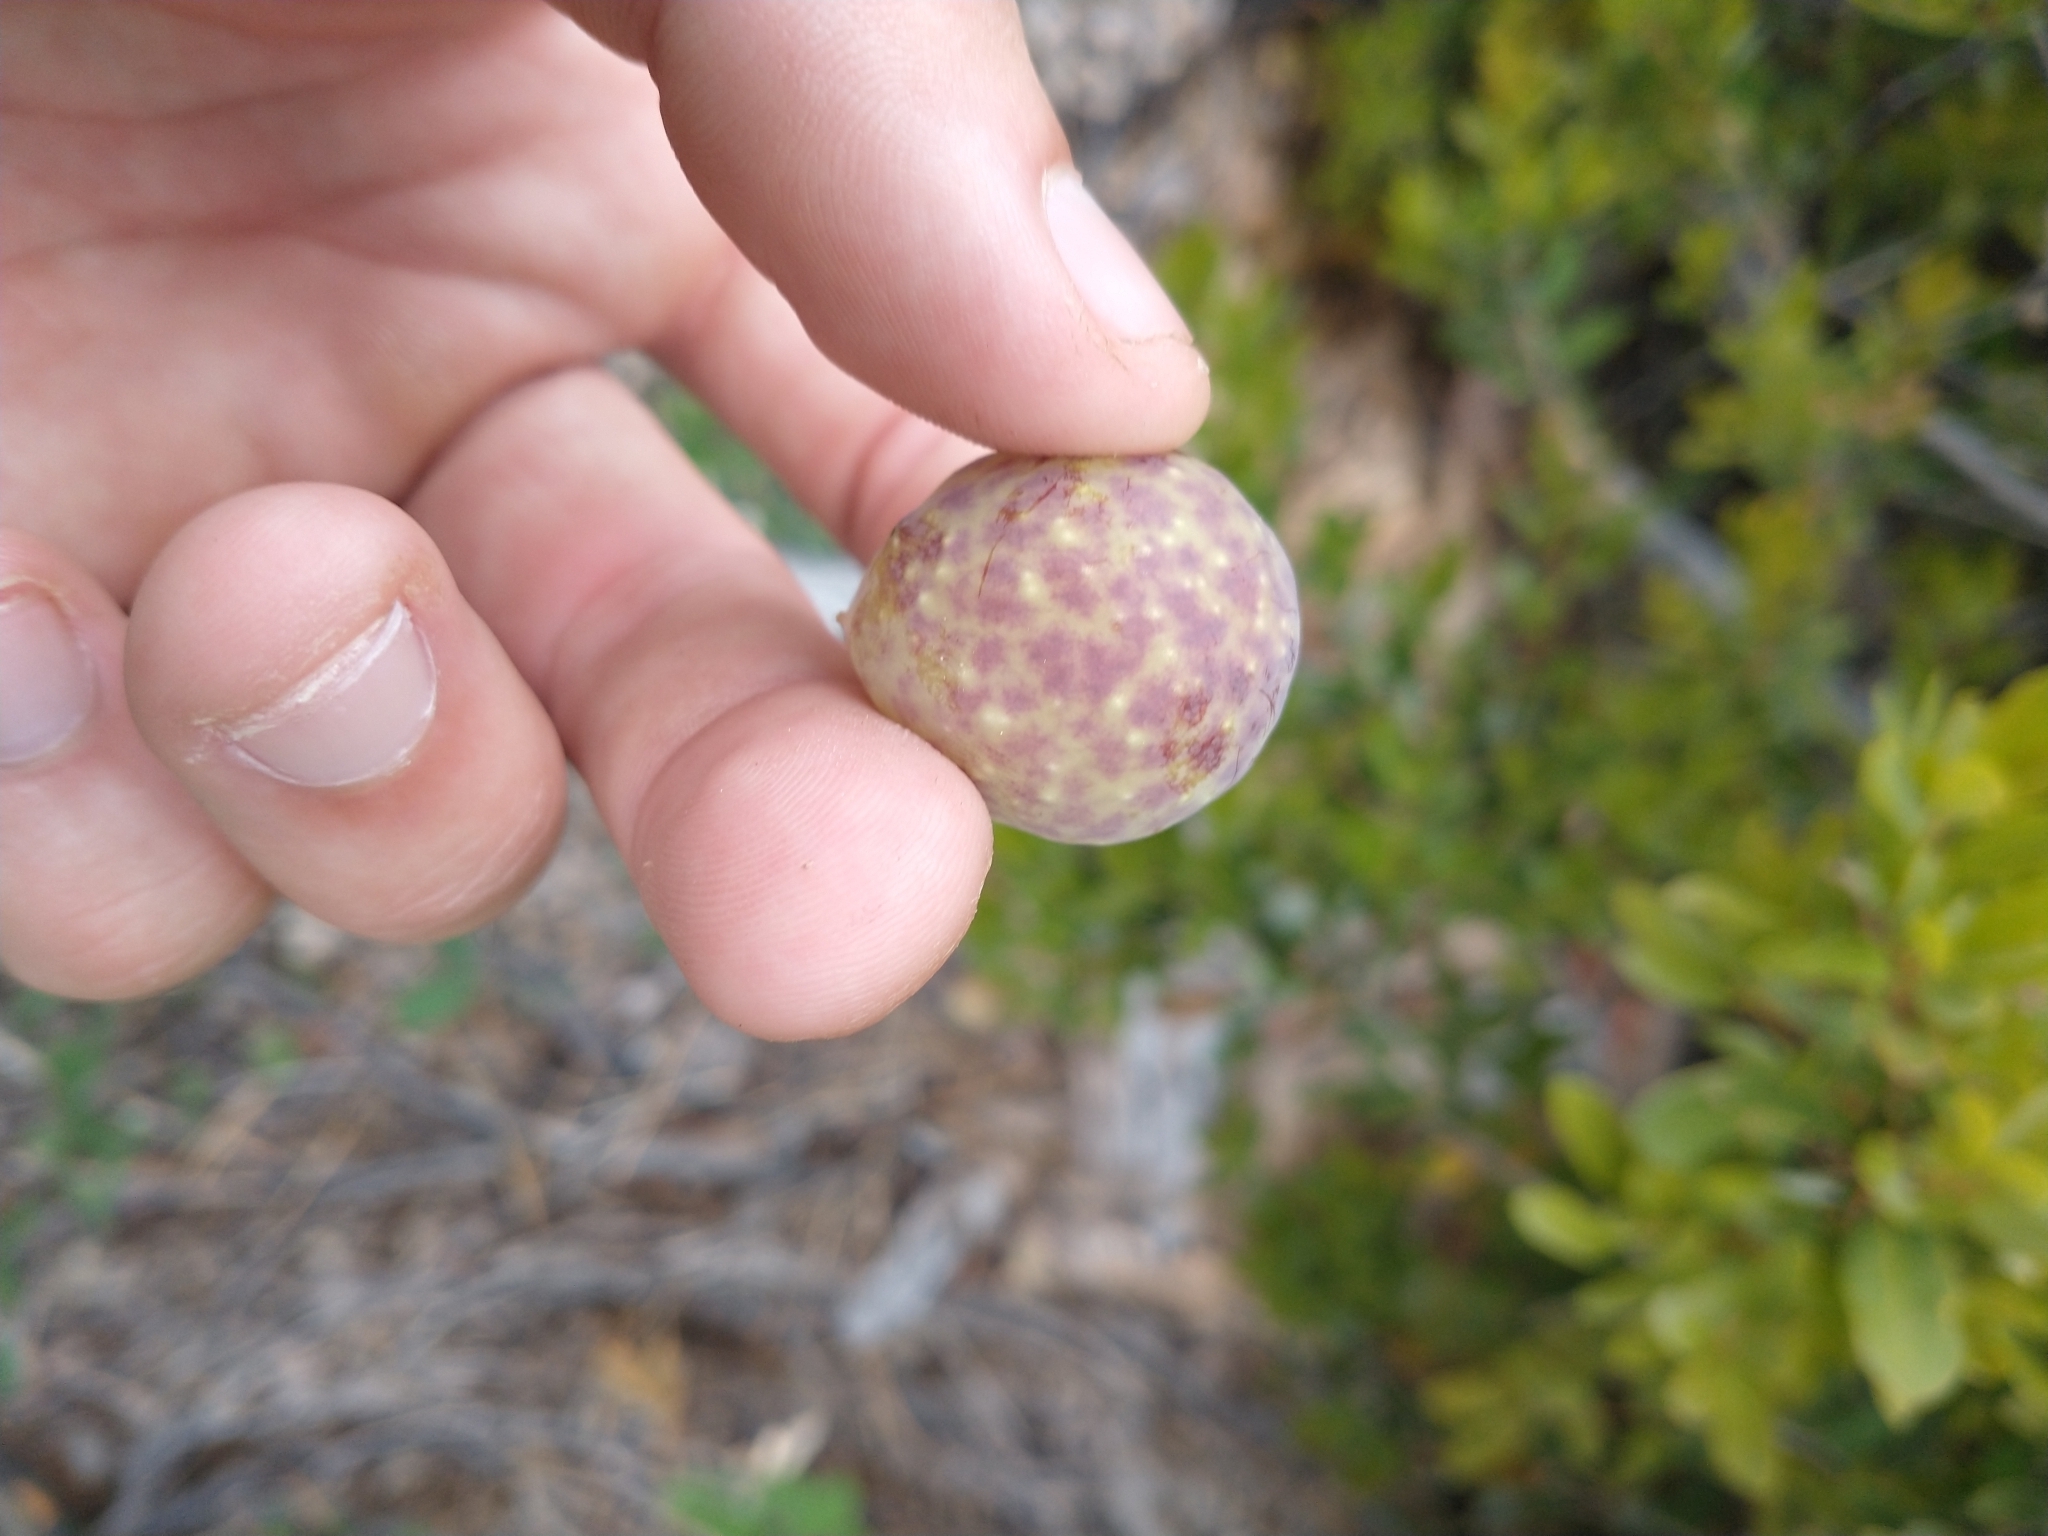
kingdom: Animalia
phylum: Arthropoda
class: Insecta
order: Hymenoptera
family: Cynipidae
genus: Andricus
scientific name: Andricus
